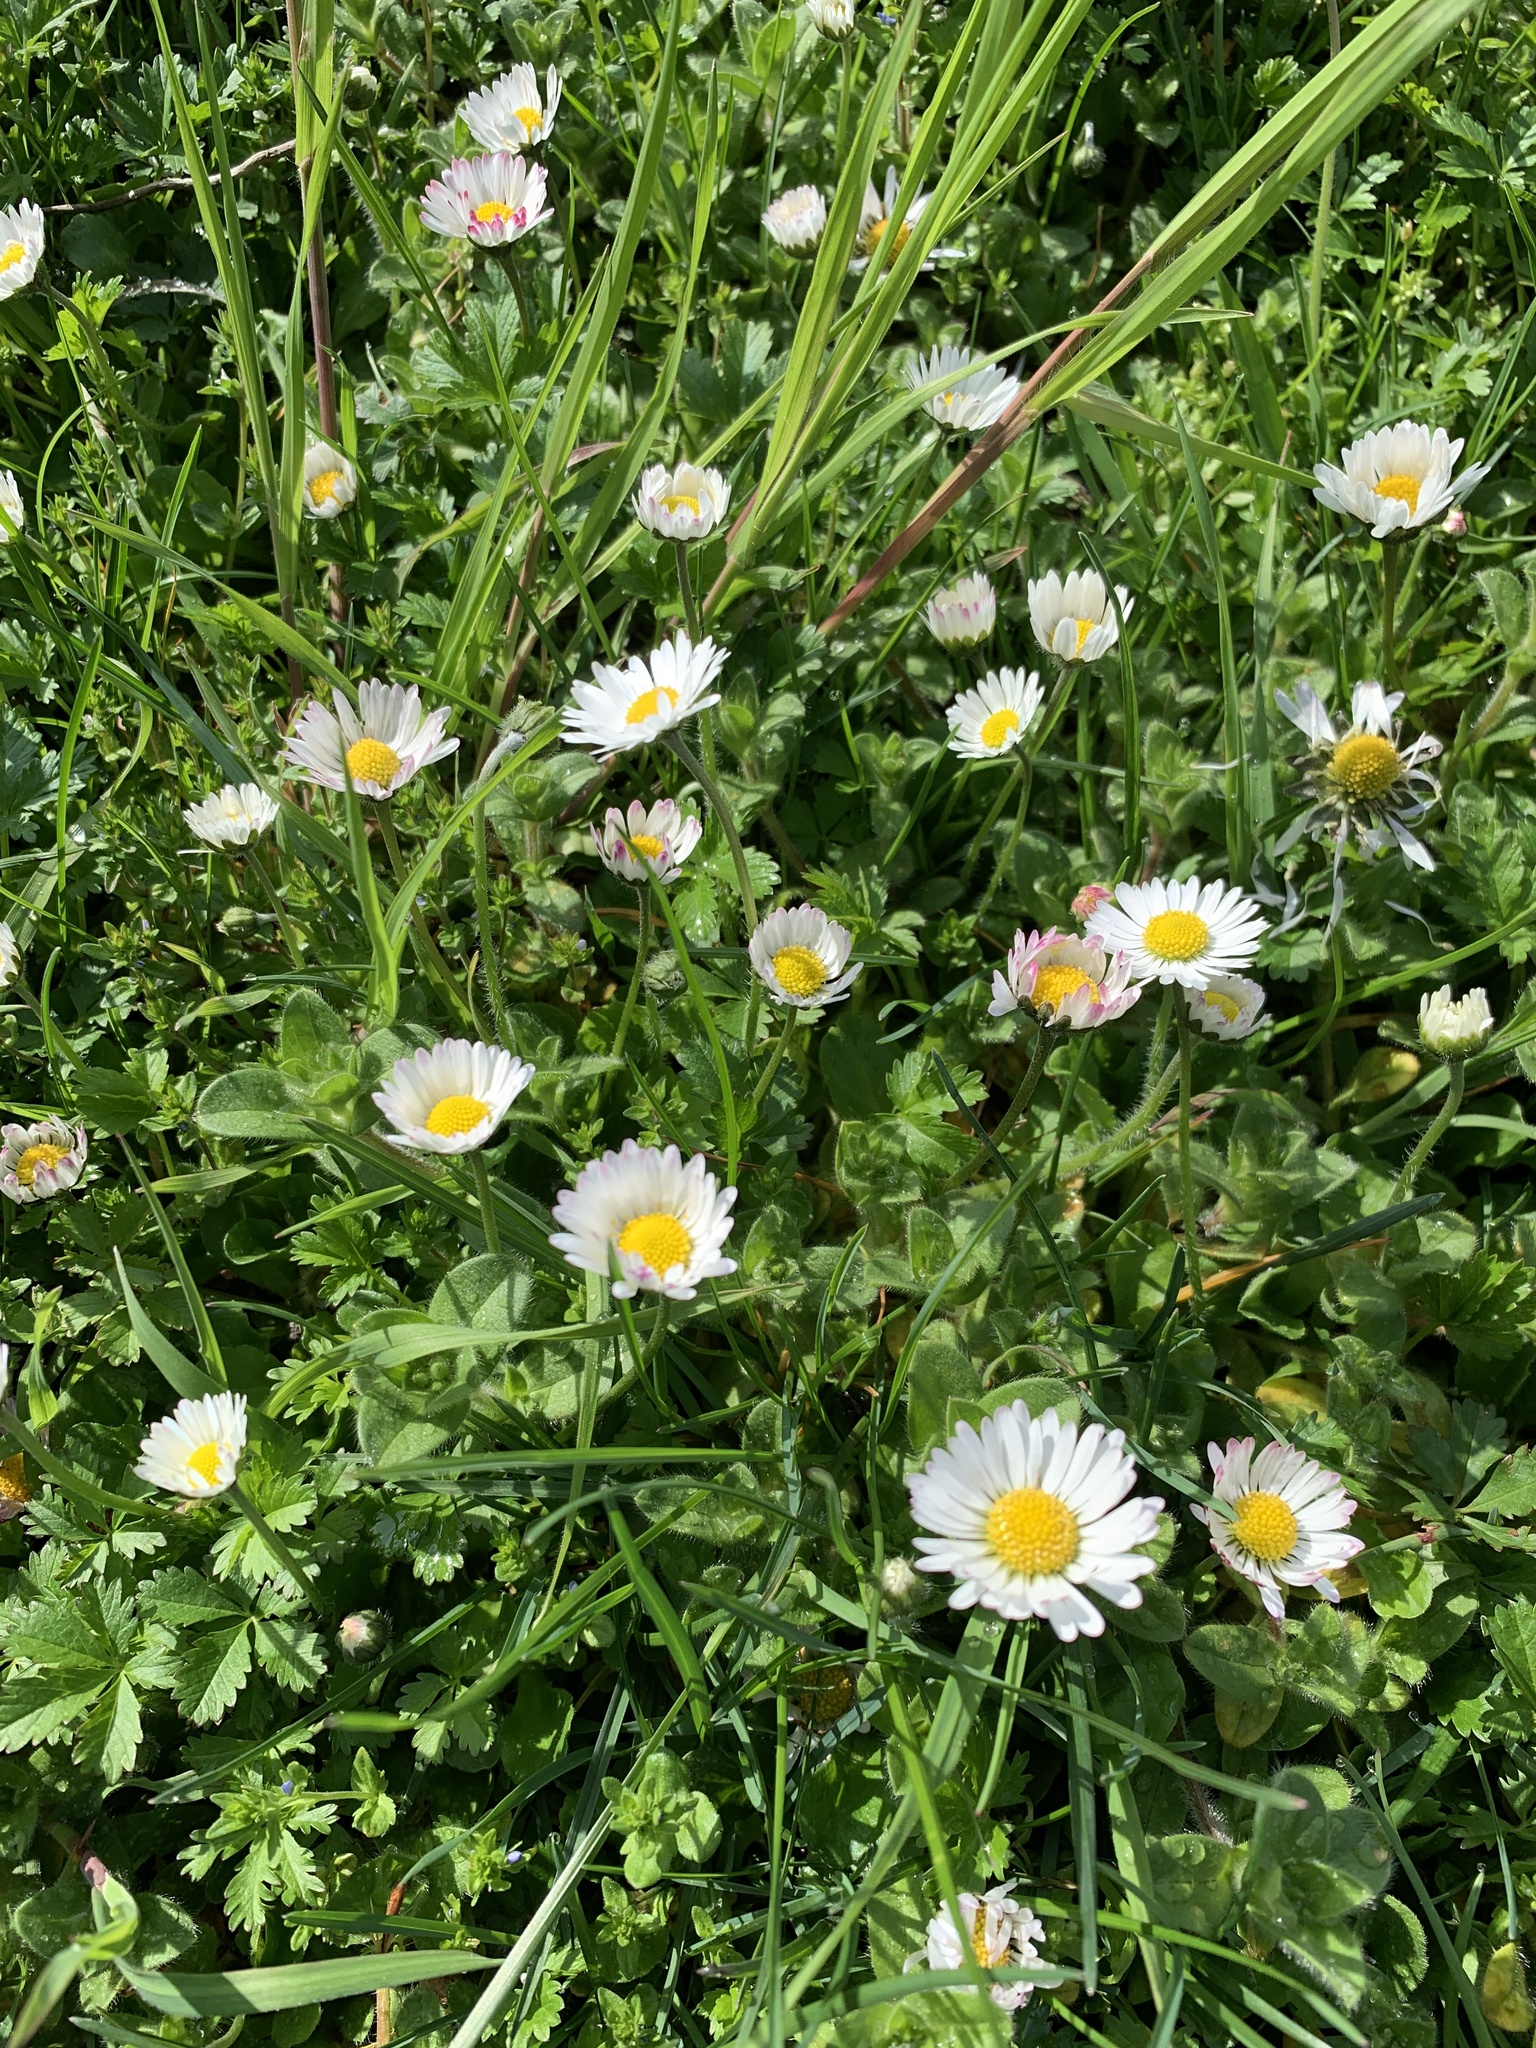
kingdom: Plantae
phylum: Tracheophyta
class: Magnoliopsida
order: Asterales
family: Asteraceae
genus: Bellis
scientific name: Bellis perennis
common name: Lawndaisy
